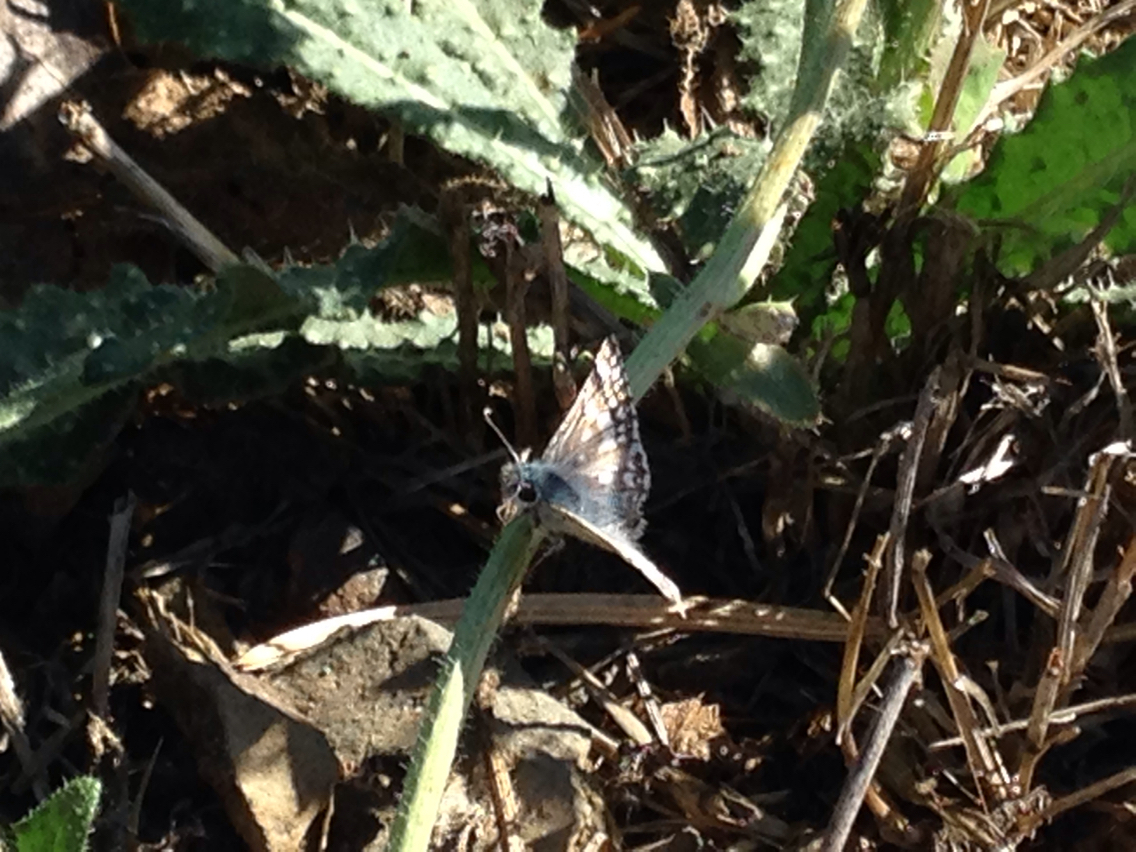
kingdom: Animalia
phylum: Arthropoda
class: Insecta
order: Lepidoptera
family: Hesperiidae
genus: Burnsius
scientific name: Burnsius communis
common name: Common checkered-skipper
